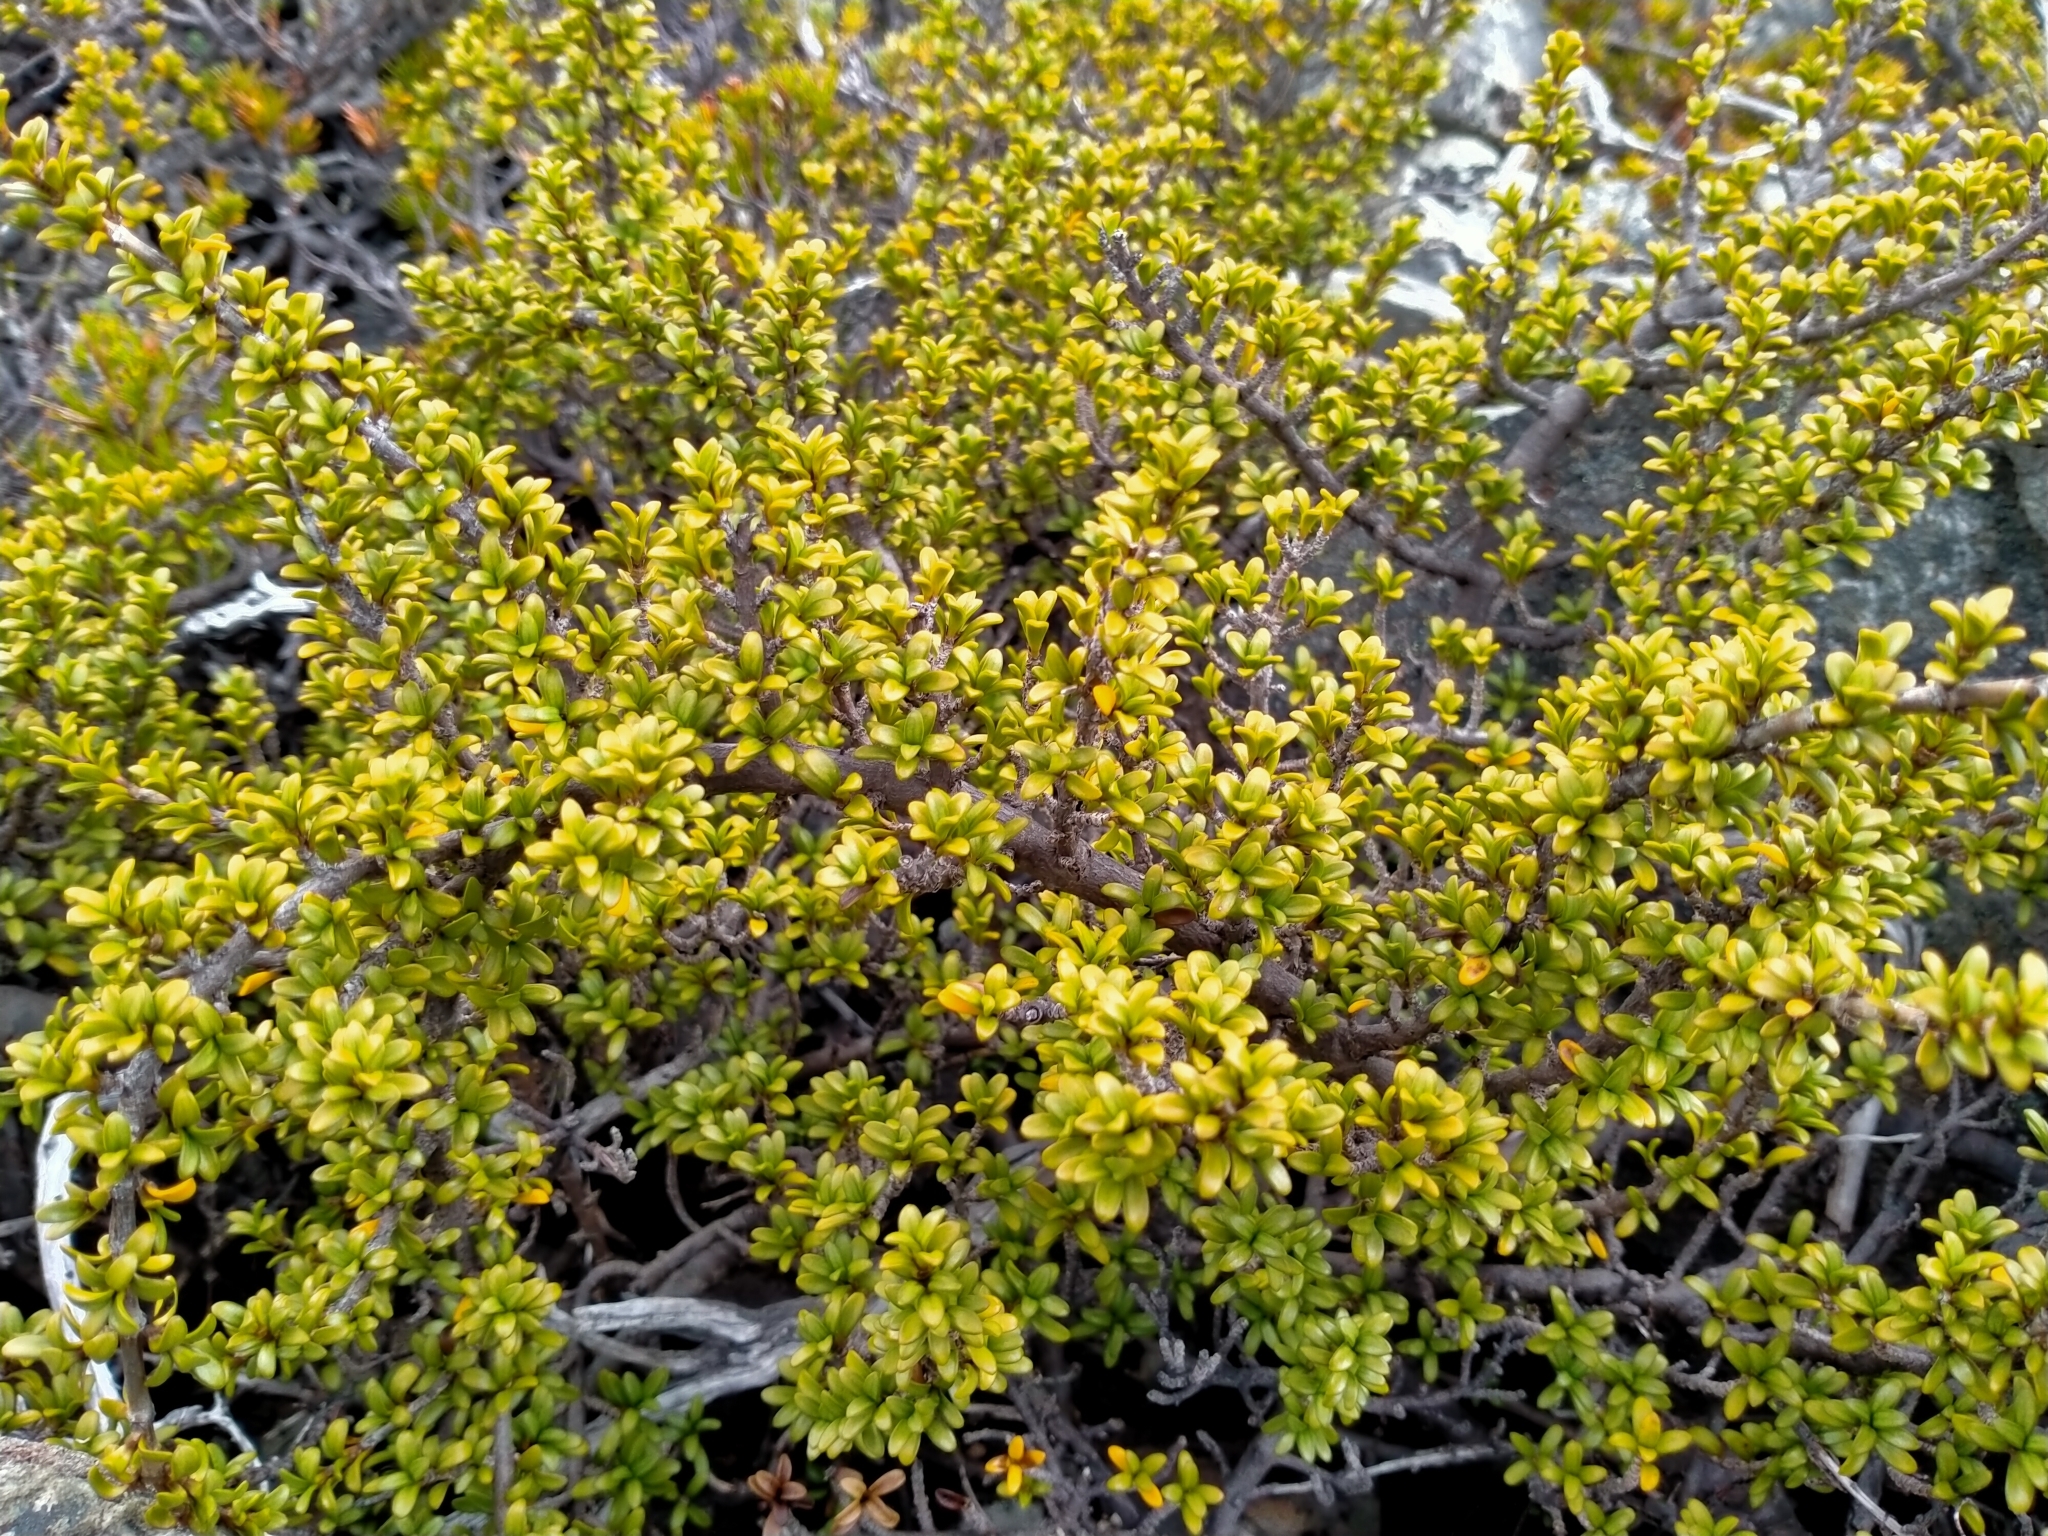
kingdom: Plantae
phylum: Tracheophyta
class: Magnoliopsida
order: Gentianales
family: Rubiaceae
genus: Coprosma
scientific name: Coprosma fowerakeri
